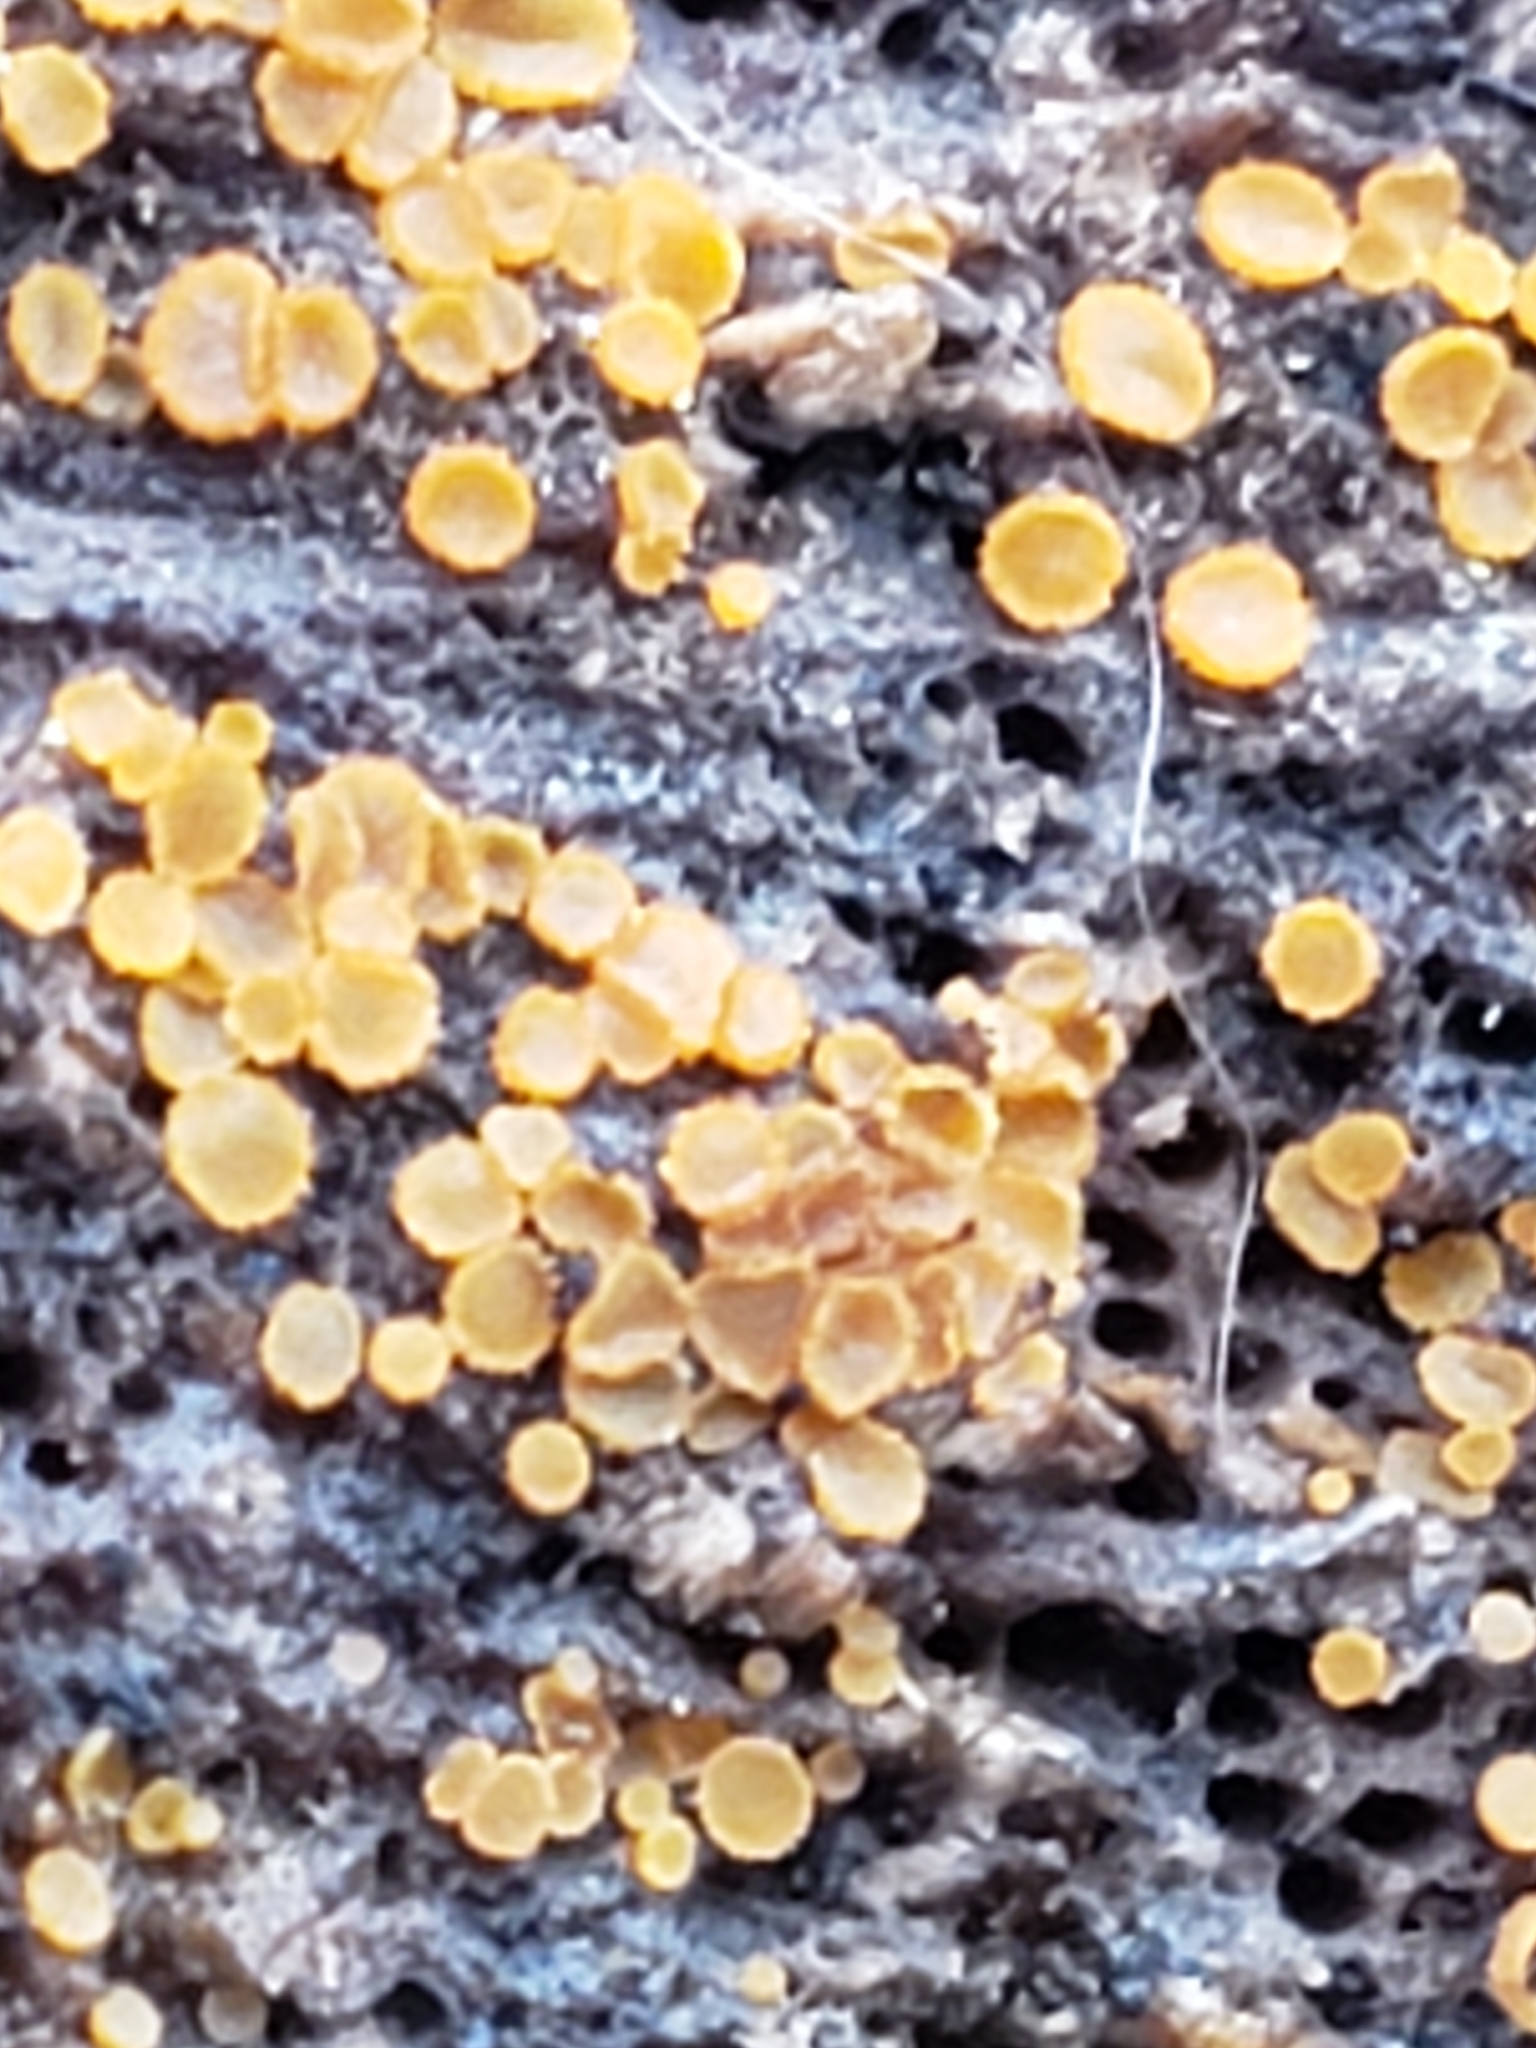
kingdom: Fungi
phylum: Ascomycota
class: Leotiomycetes
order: Helotiales
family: Arachnopezizaceae
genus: Arachnopeziza
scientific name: Arachnopeziza trabinelloides
